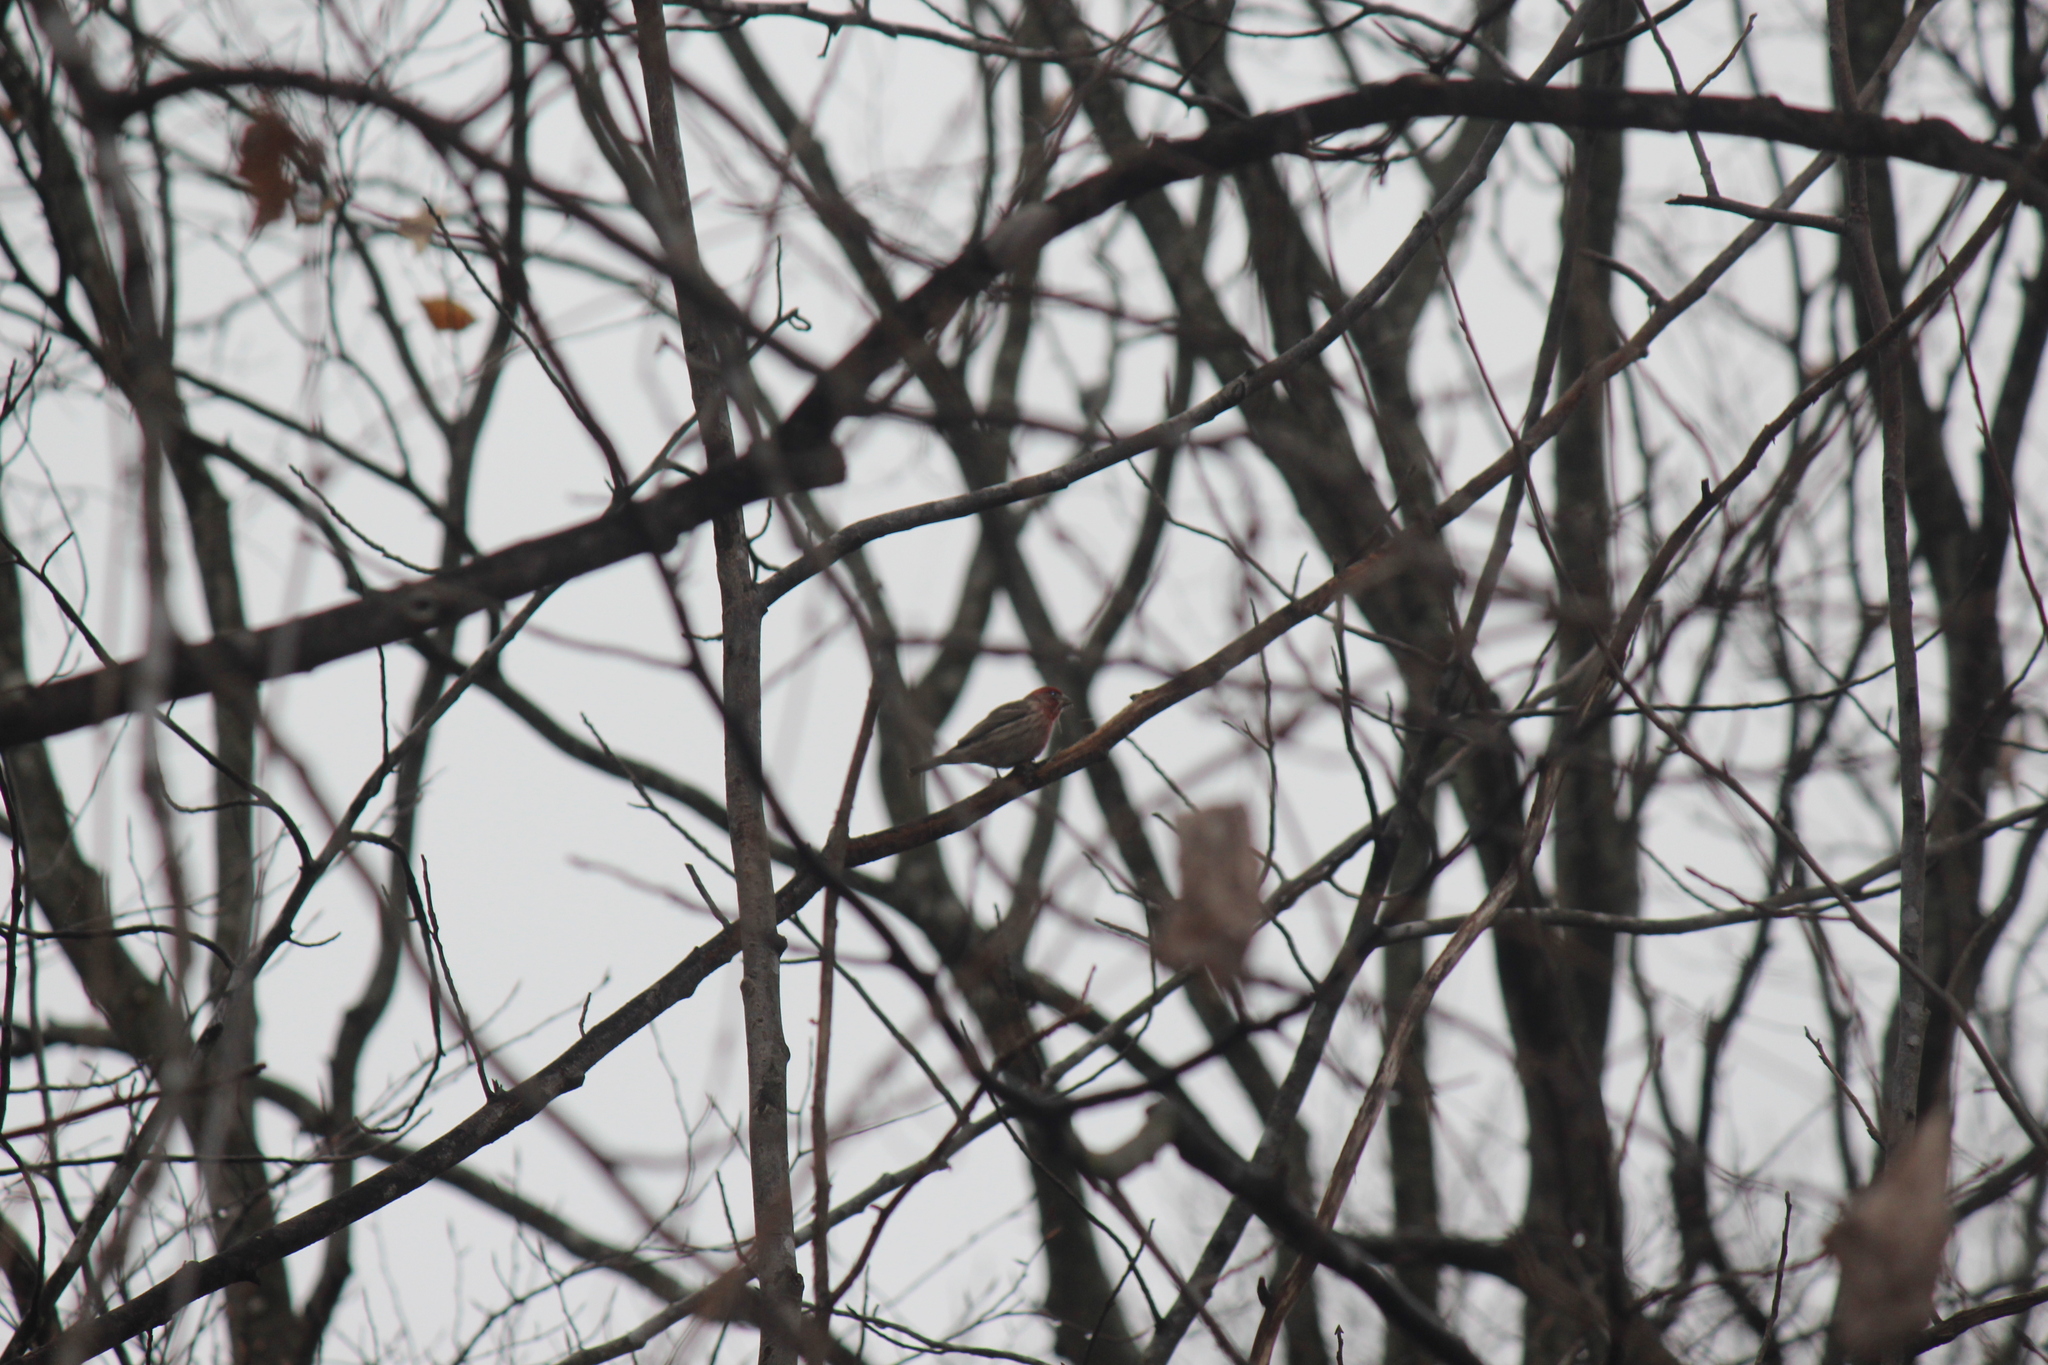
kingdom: Animalia
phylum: Chordata
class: Aves
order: Passeriformes
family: Fringillidae
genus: Haemorhous
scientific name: Haemorhous mexicanus
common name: House finch
